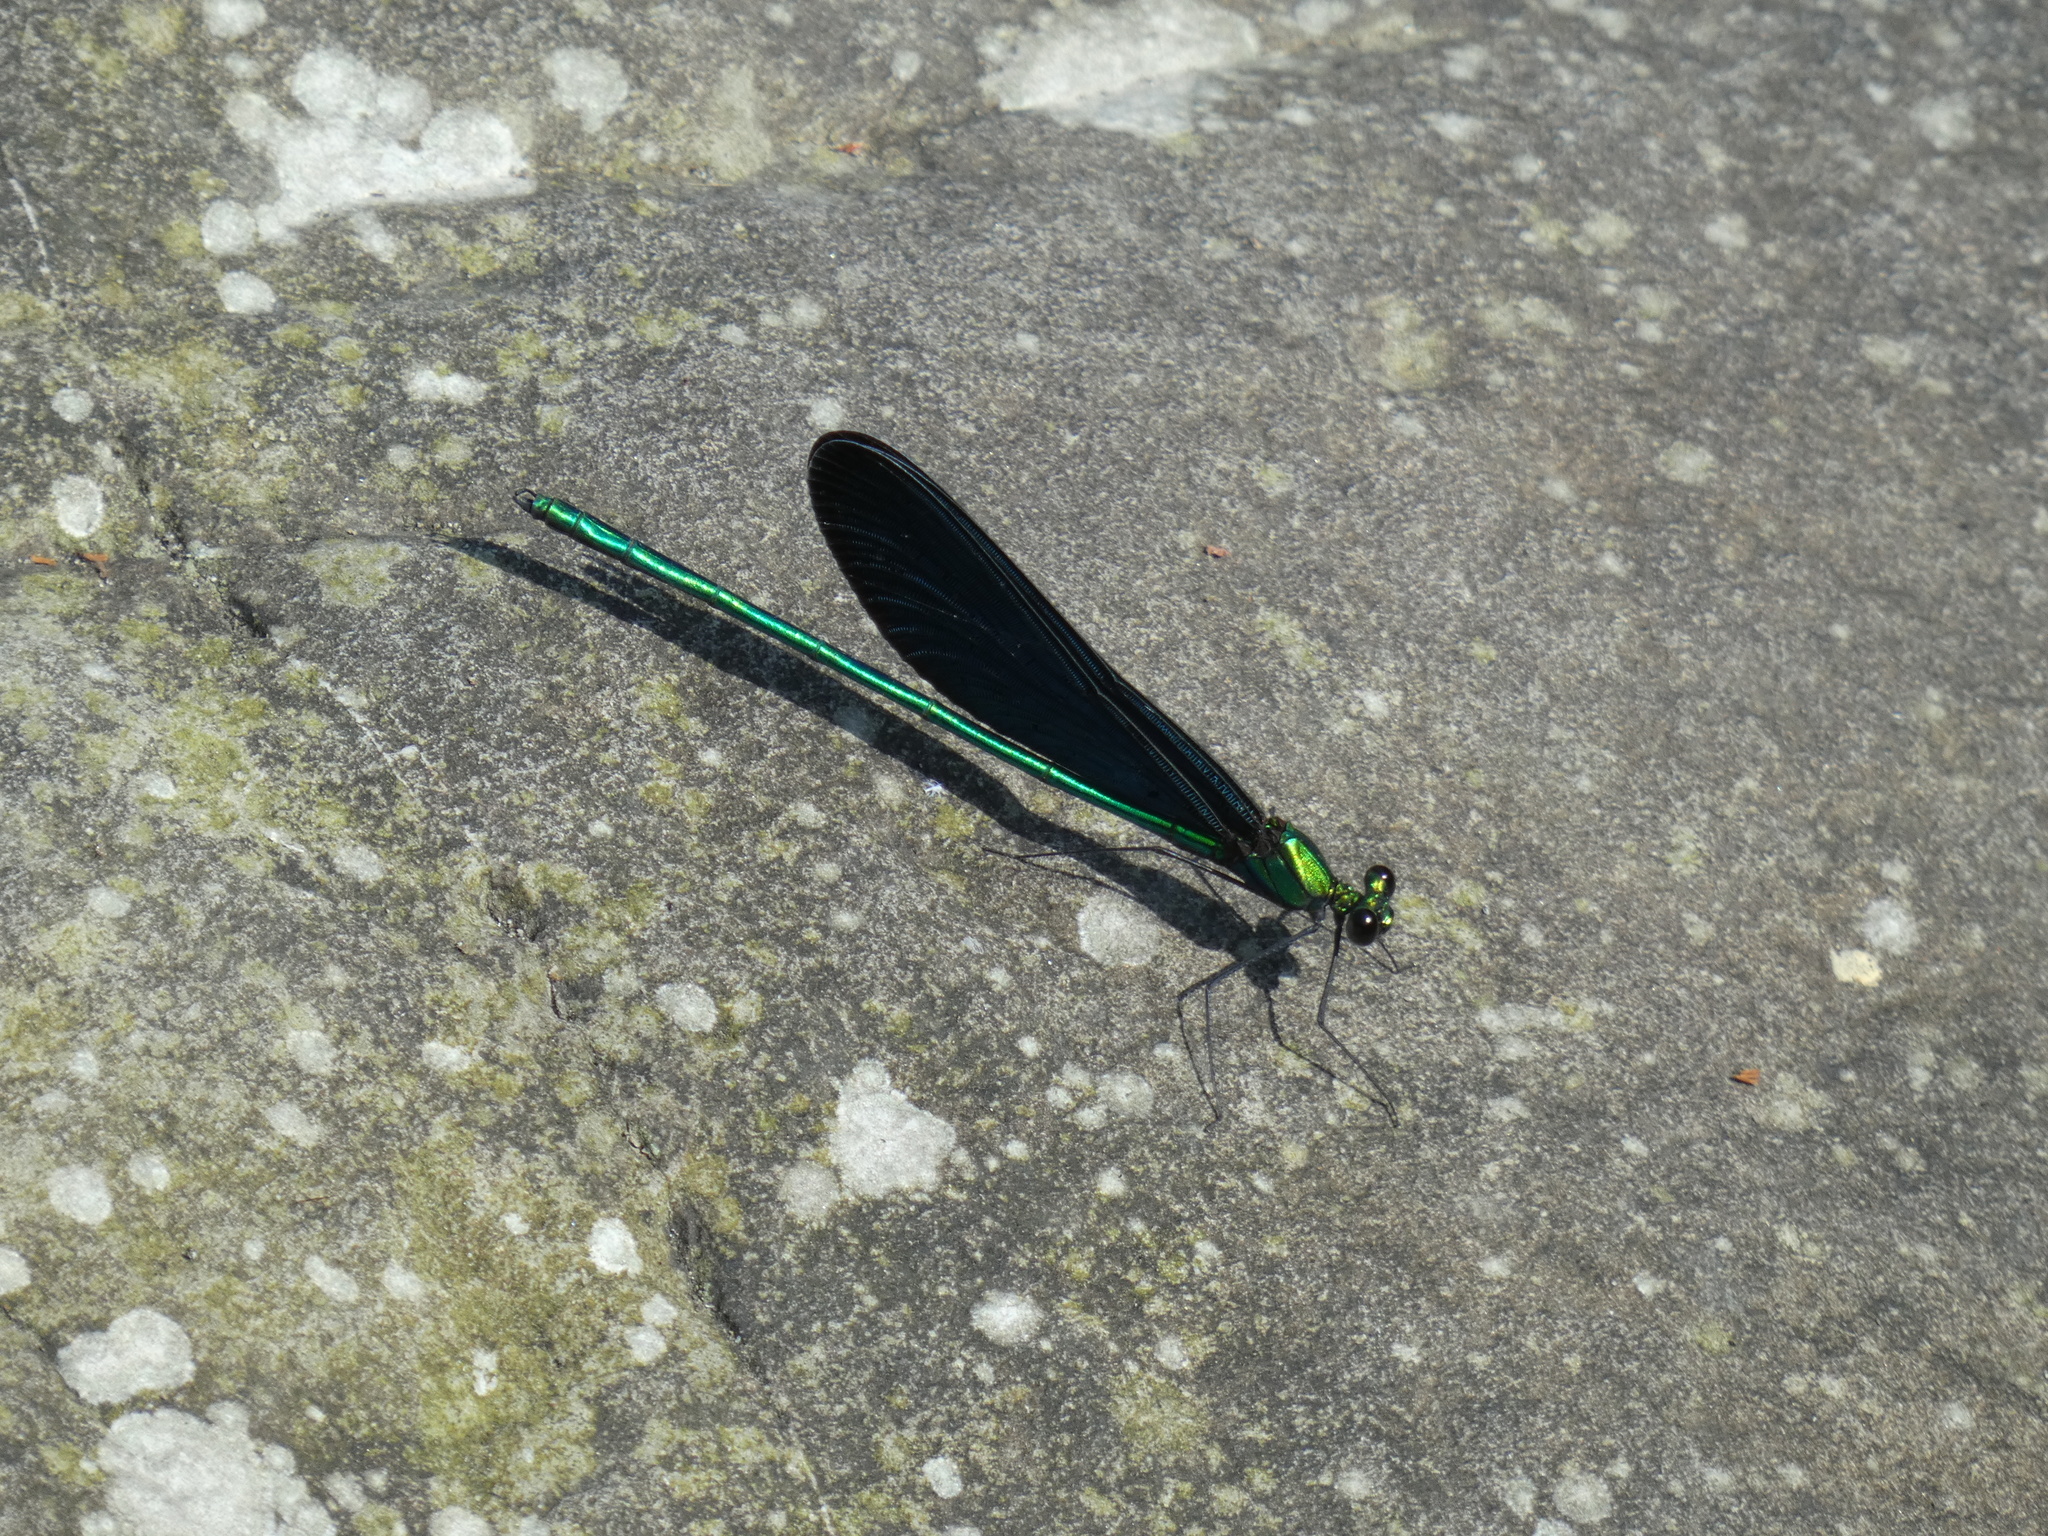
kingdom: Animalia
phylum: Arthropoda
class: Insecta
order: Odonata
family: Calopterygidae
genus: Matrona
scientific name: Matrona cyanoptera
